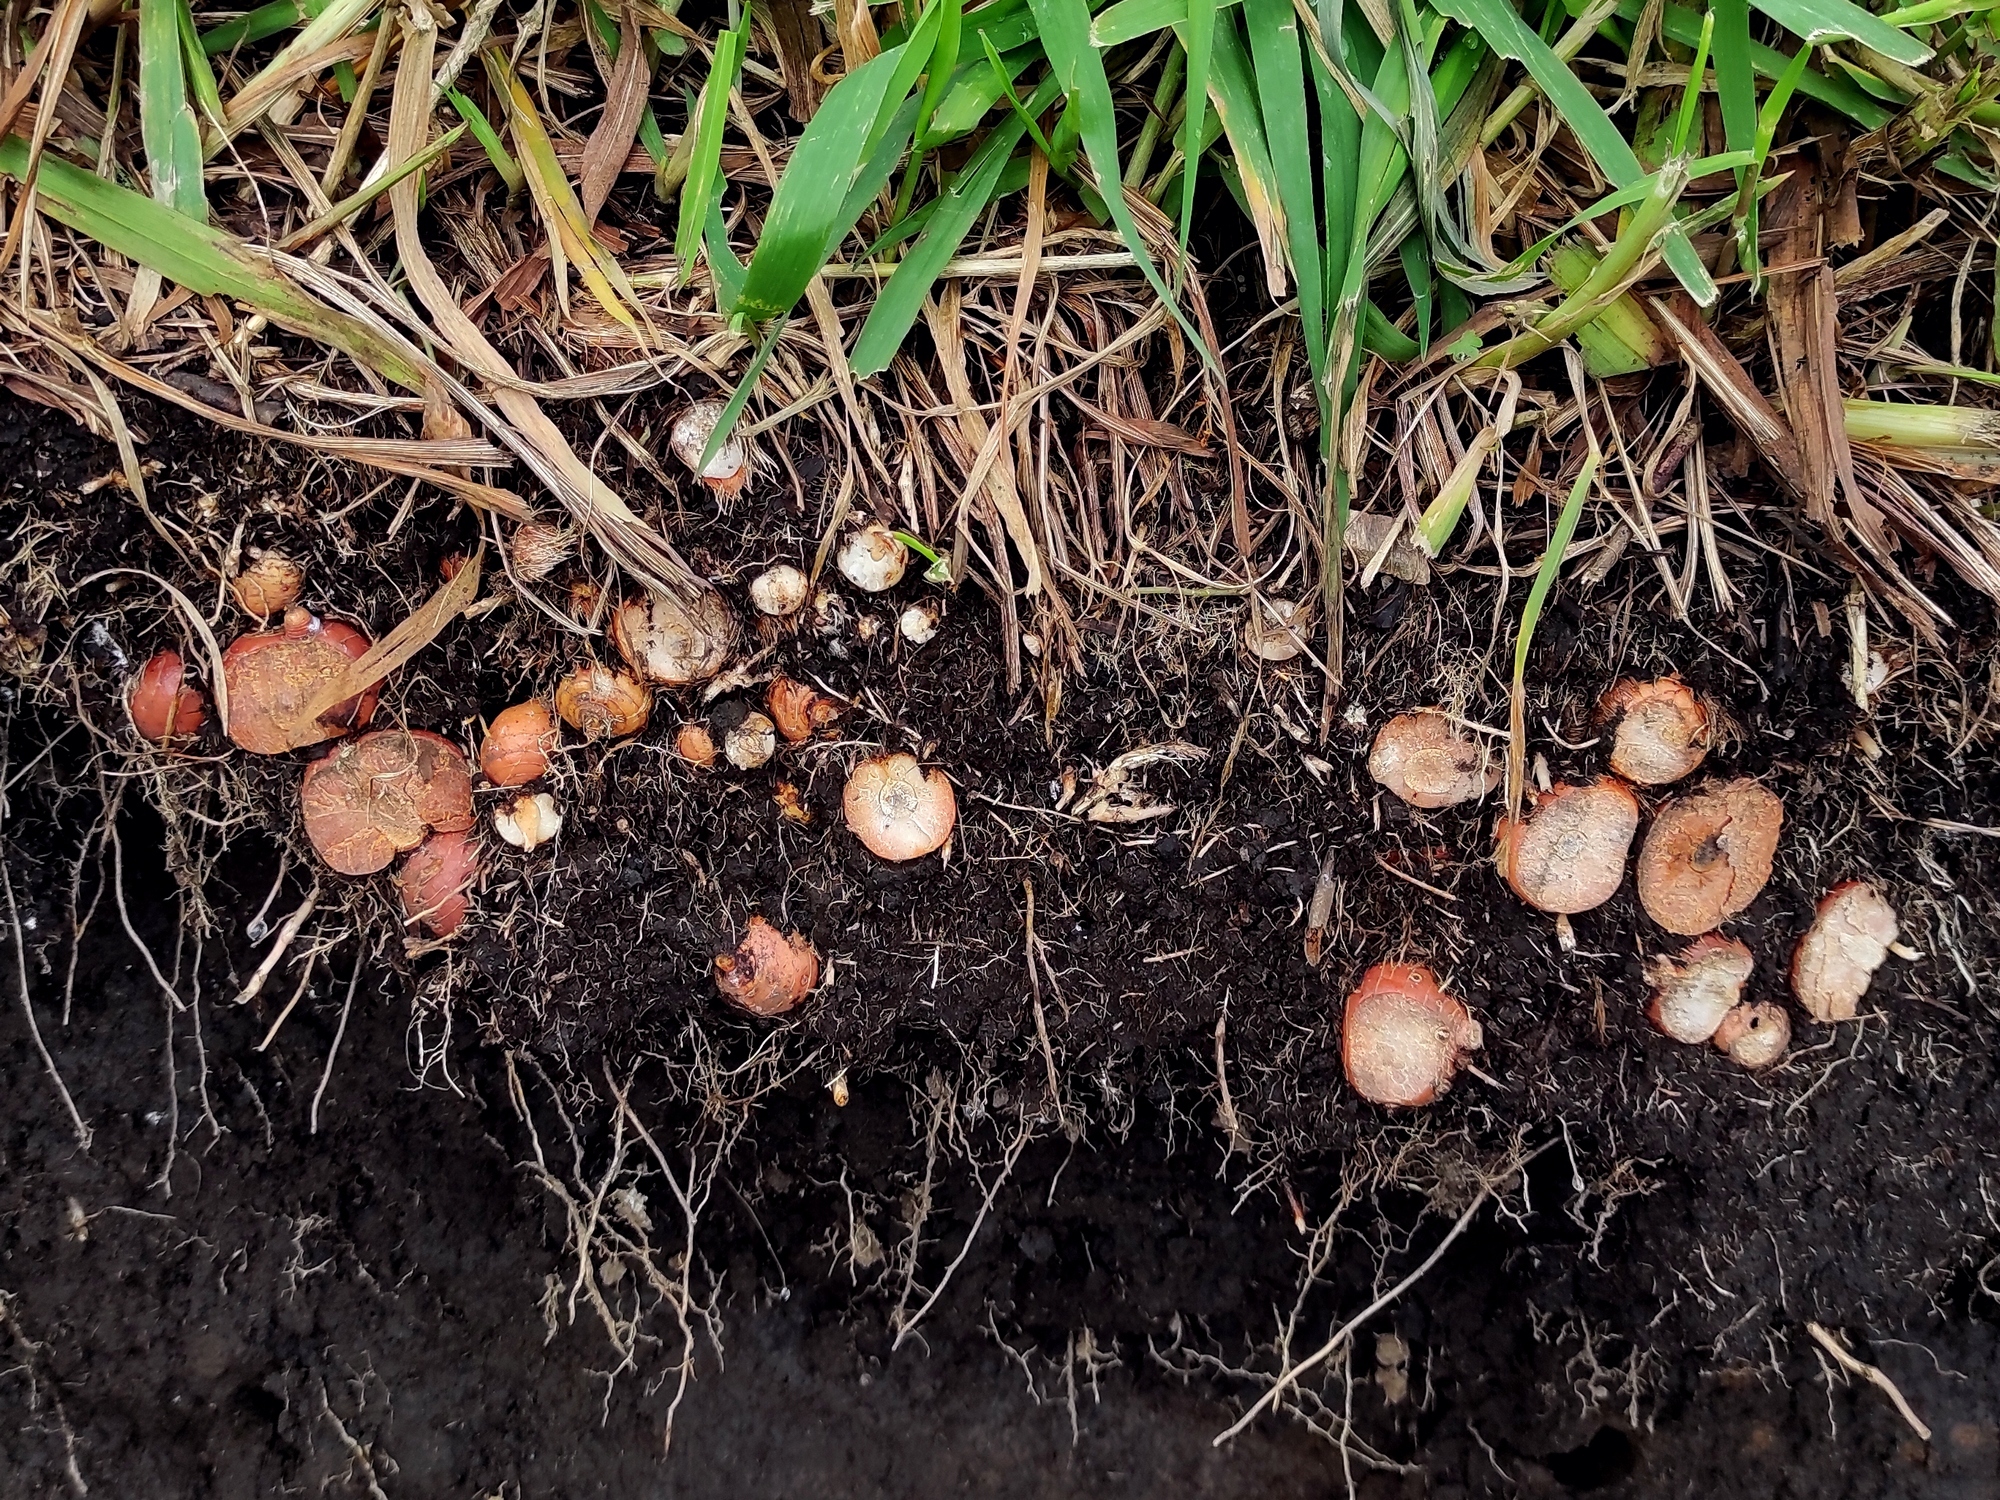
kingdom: Plantae
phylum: Tracheophyta
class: Liliopsida
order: Asparagales
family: Iridaceae
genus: Crocosmia
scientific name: Crocosmia crocosmiiflora
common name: Montbretia
